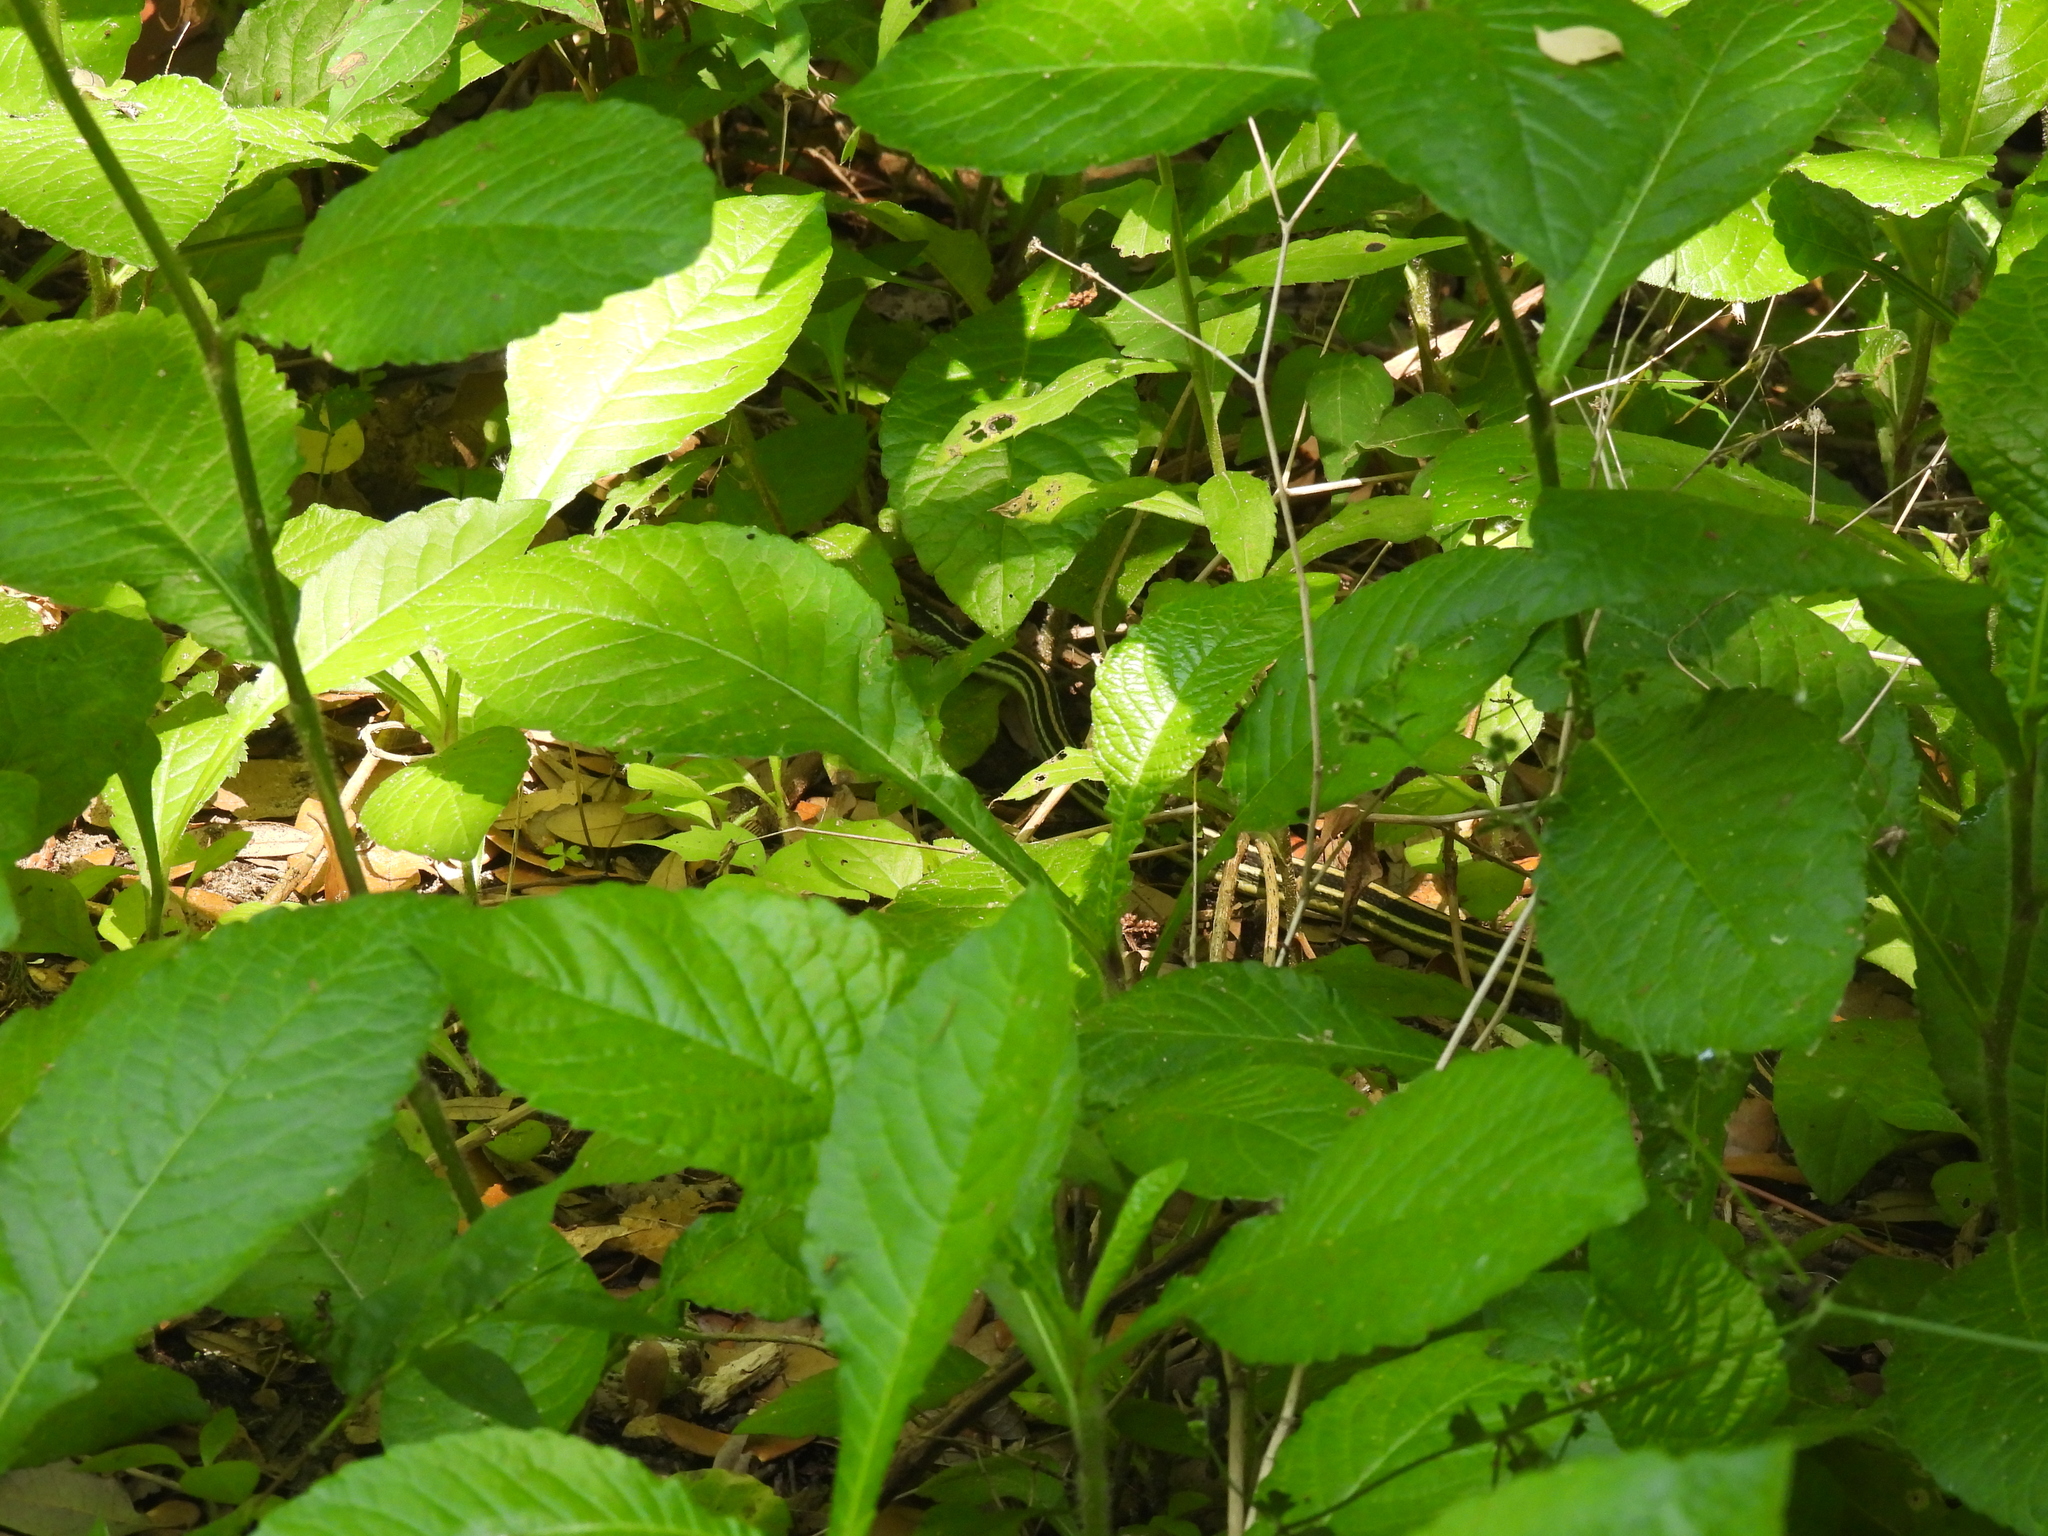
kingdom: Animalia
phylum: Chordata
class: Squamata
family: Colubridae
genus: Thamnophis
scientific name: Thamnophis proximus
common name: Western ribbon snake
